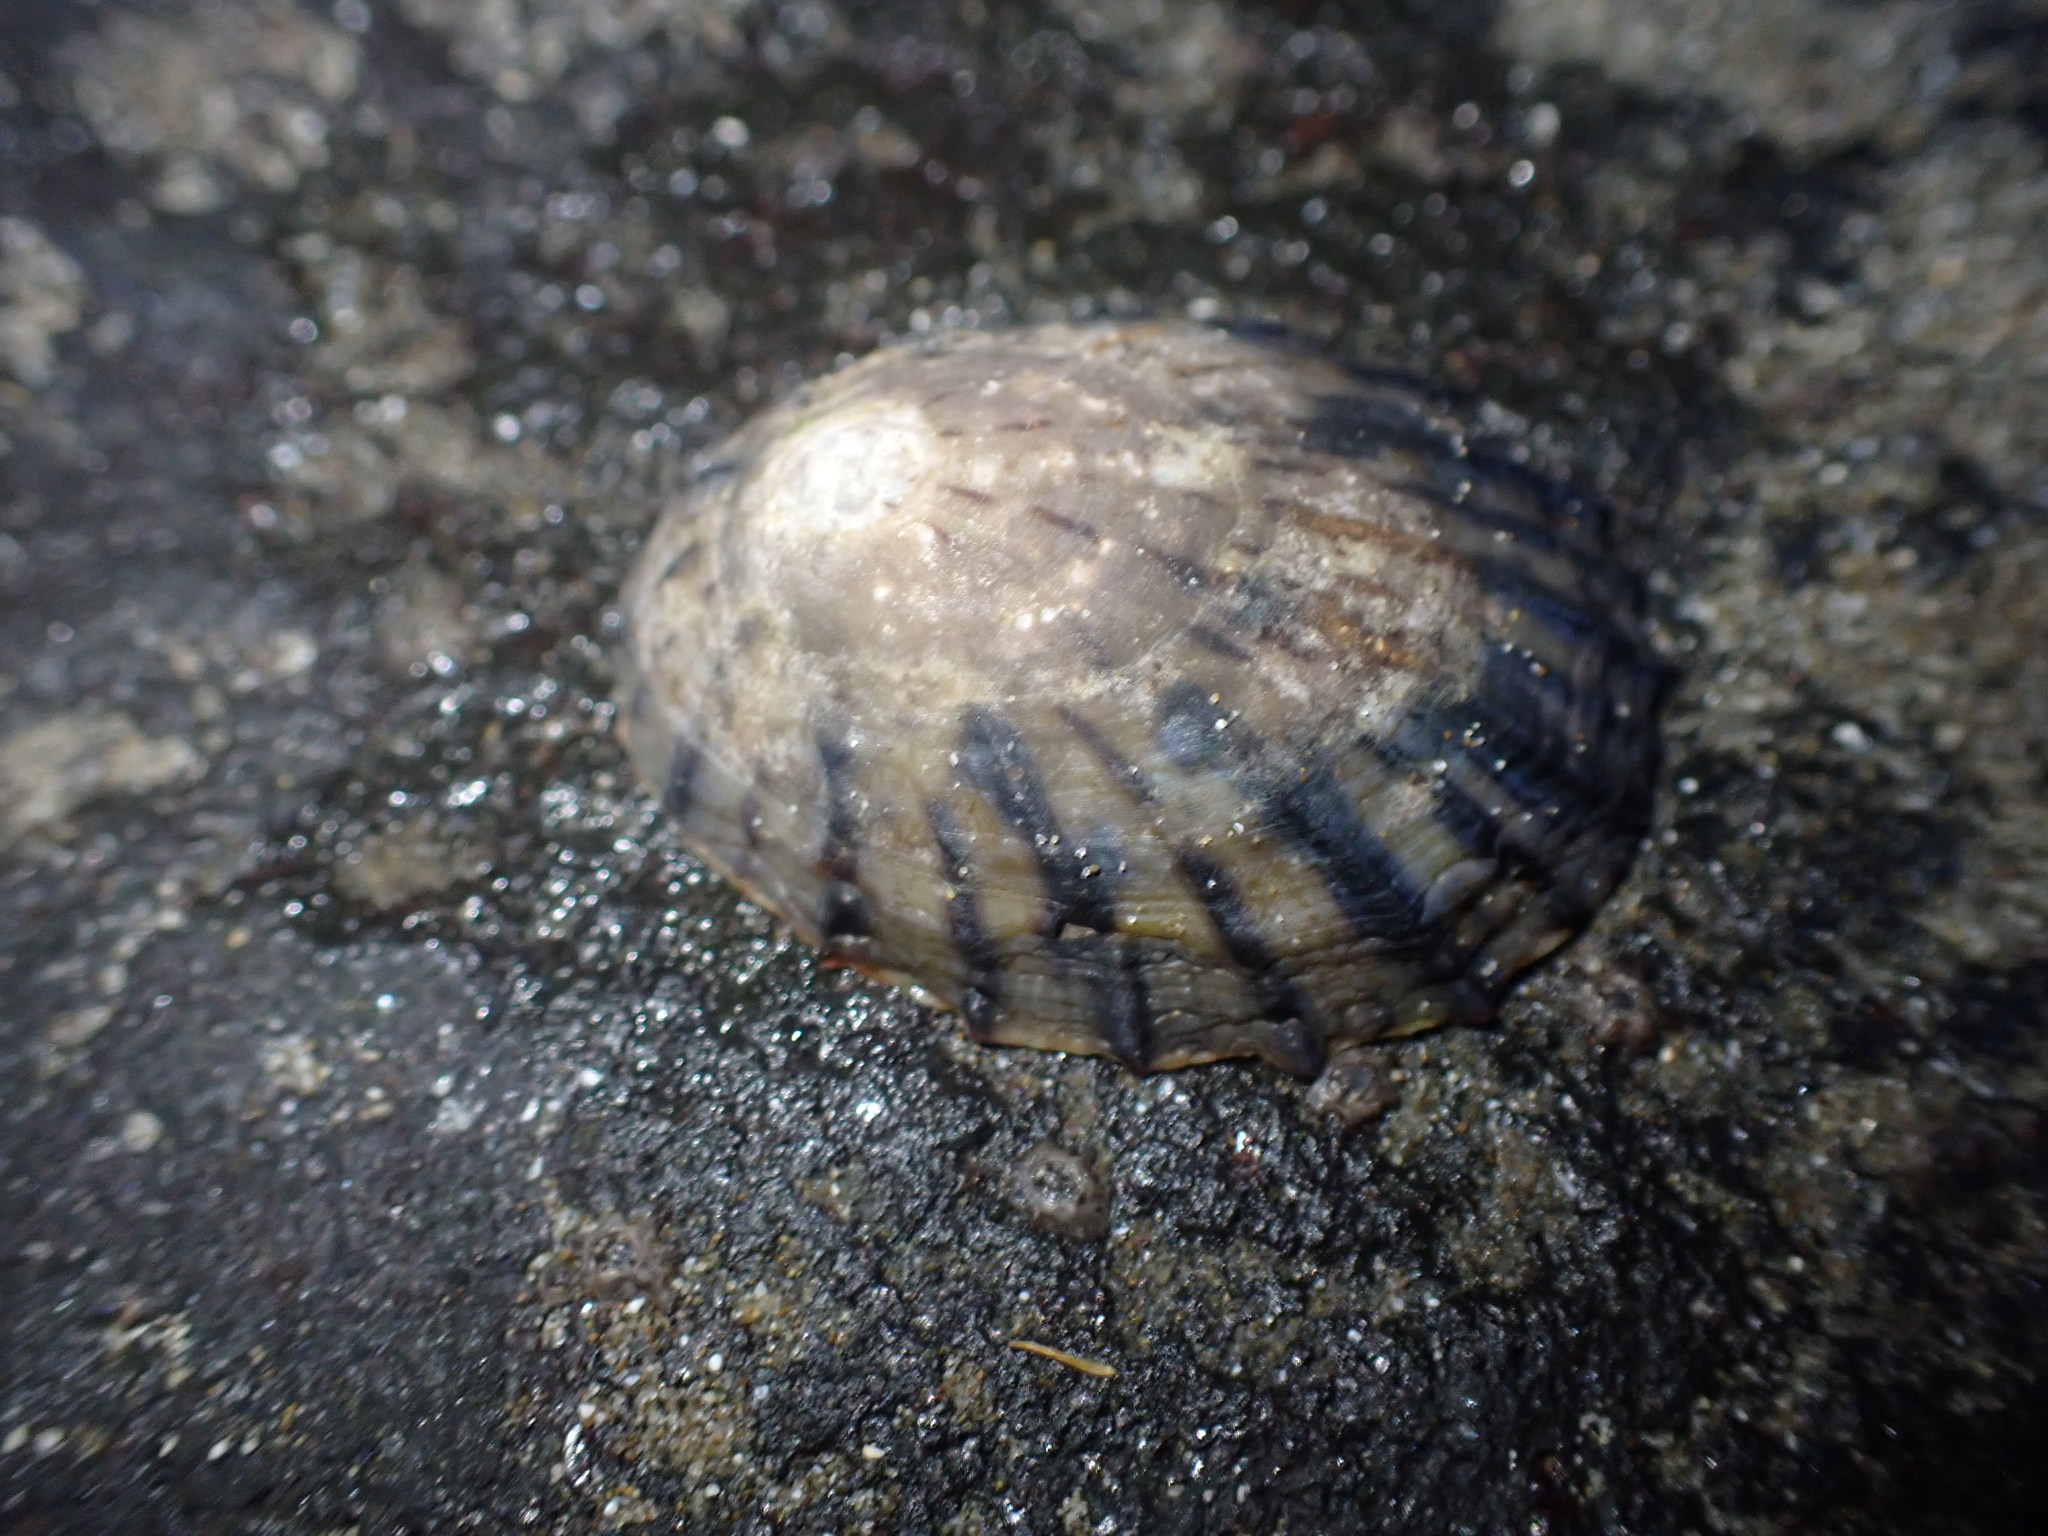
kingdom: Animalia
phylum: Mollusca
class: Gastropoda
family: Nacellidae
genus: Cellana
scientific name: Cellana radians
